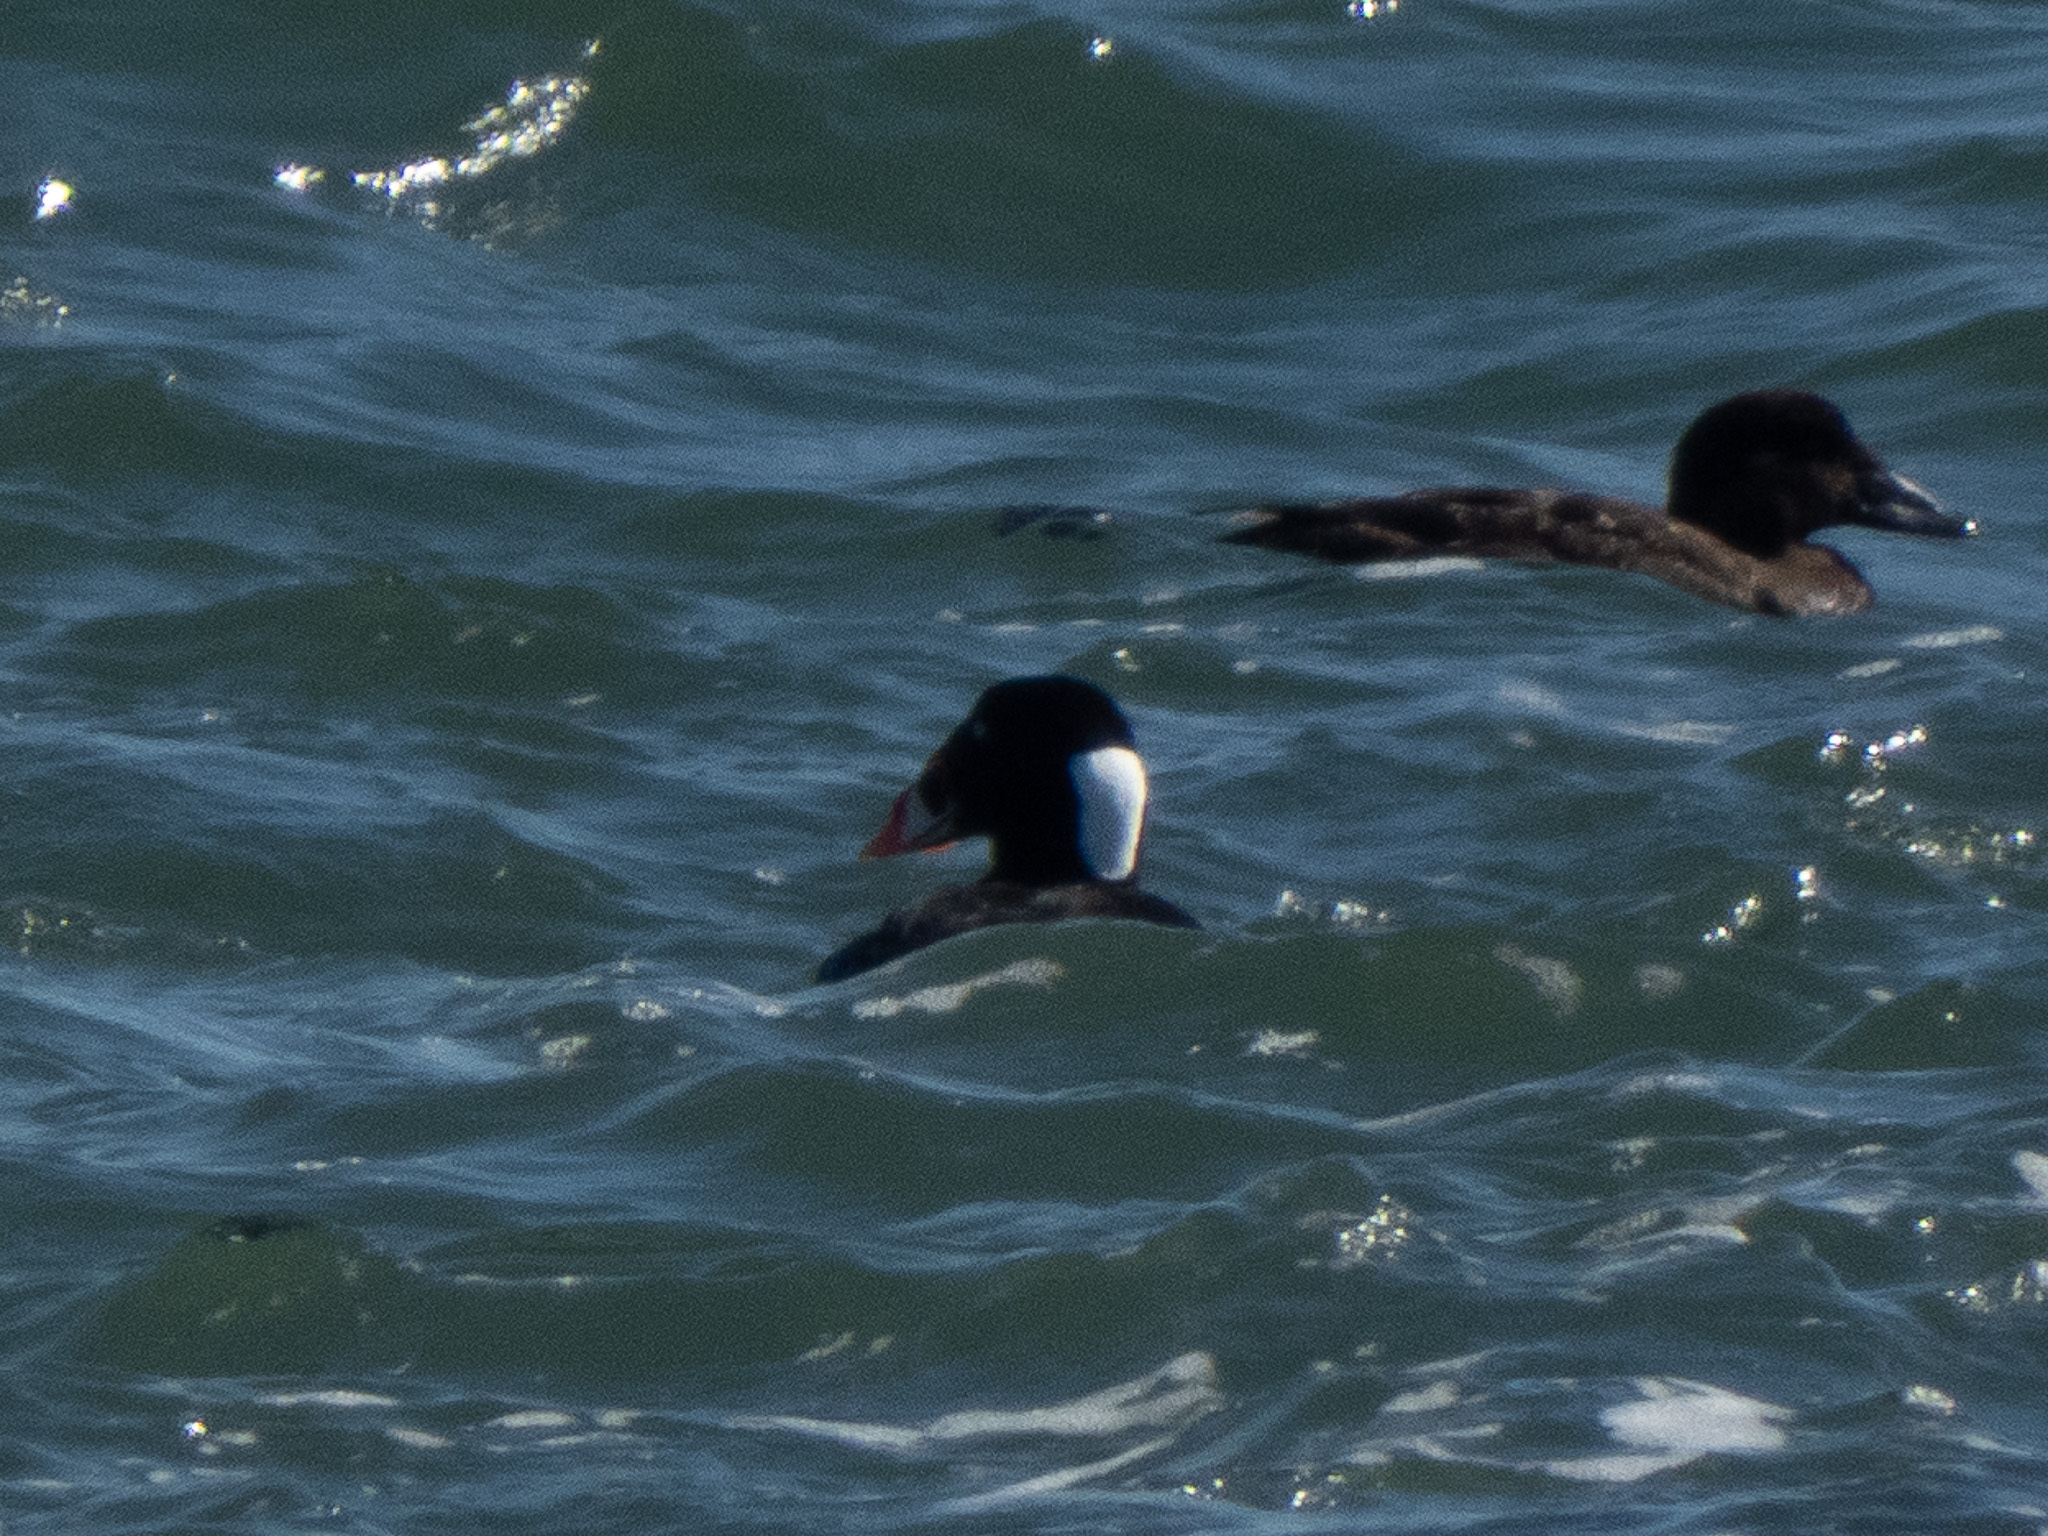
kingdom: Animalia
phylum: Chordata
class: Aves
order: Anseriformes
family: Anatidae
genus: Melanitta
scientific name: Melanitta perspicillata
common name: Surf scoter
